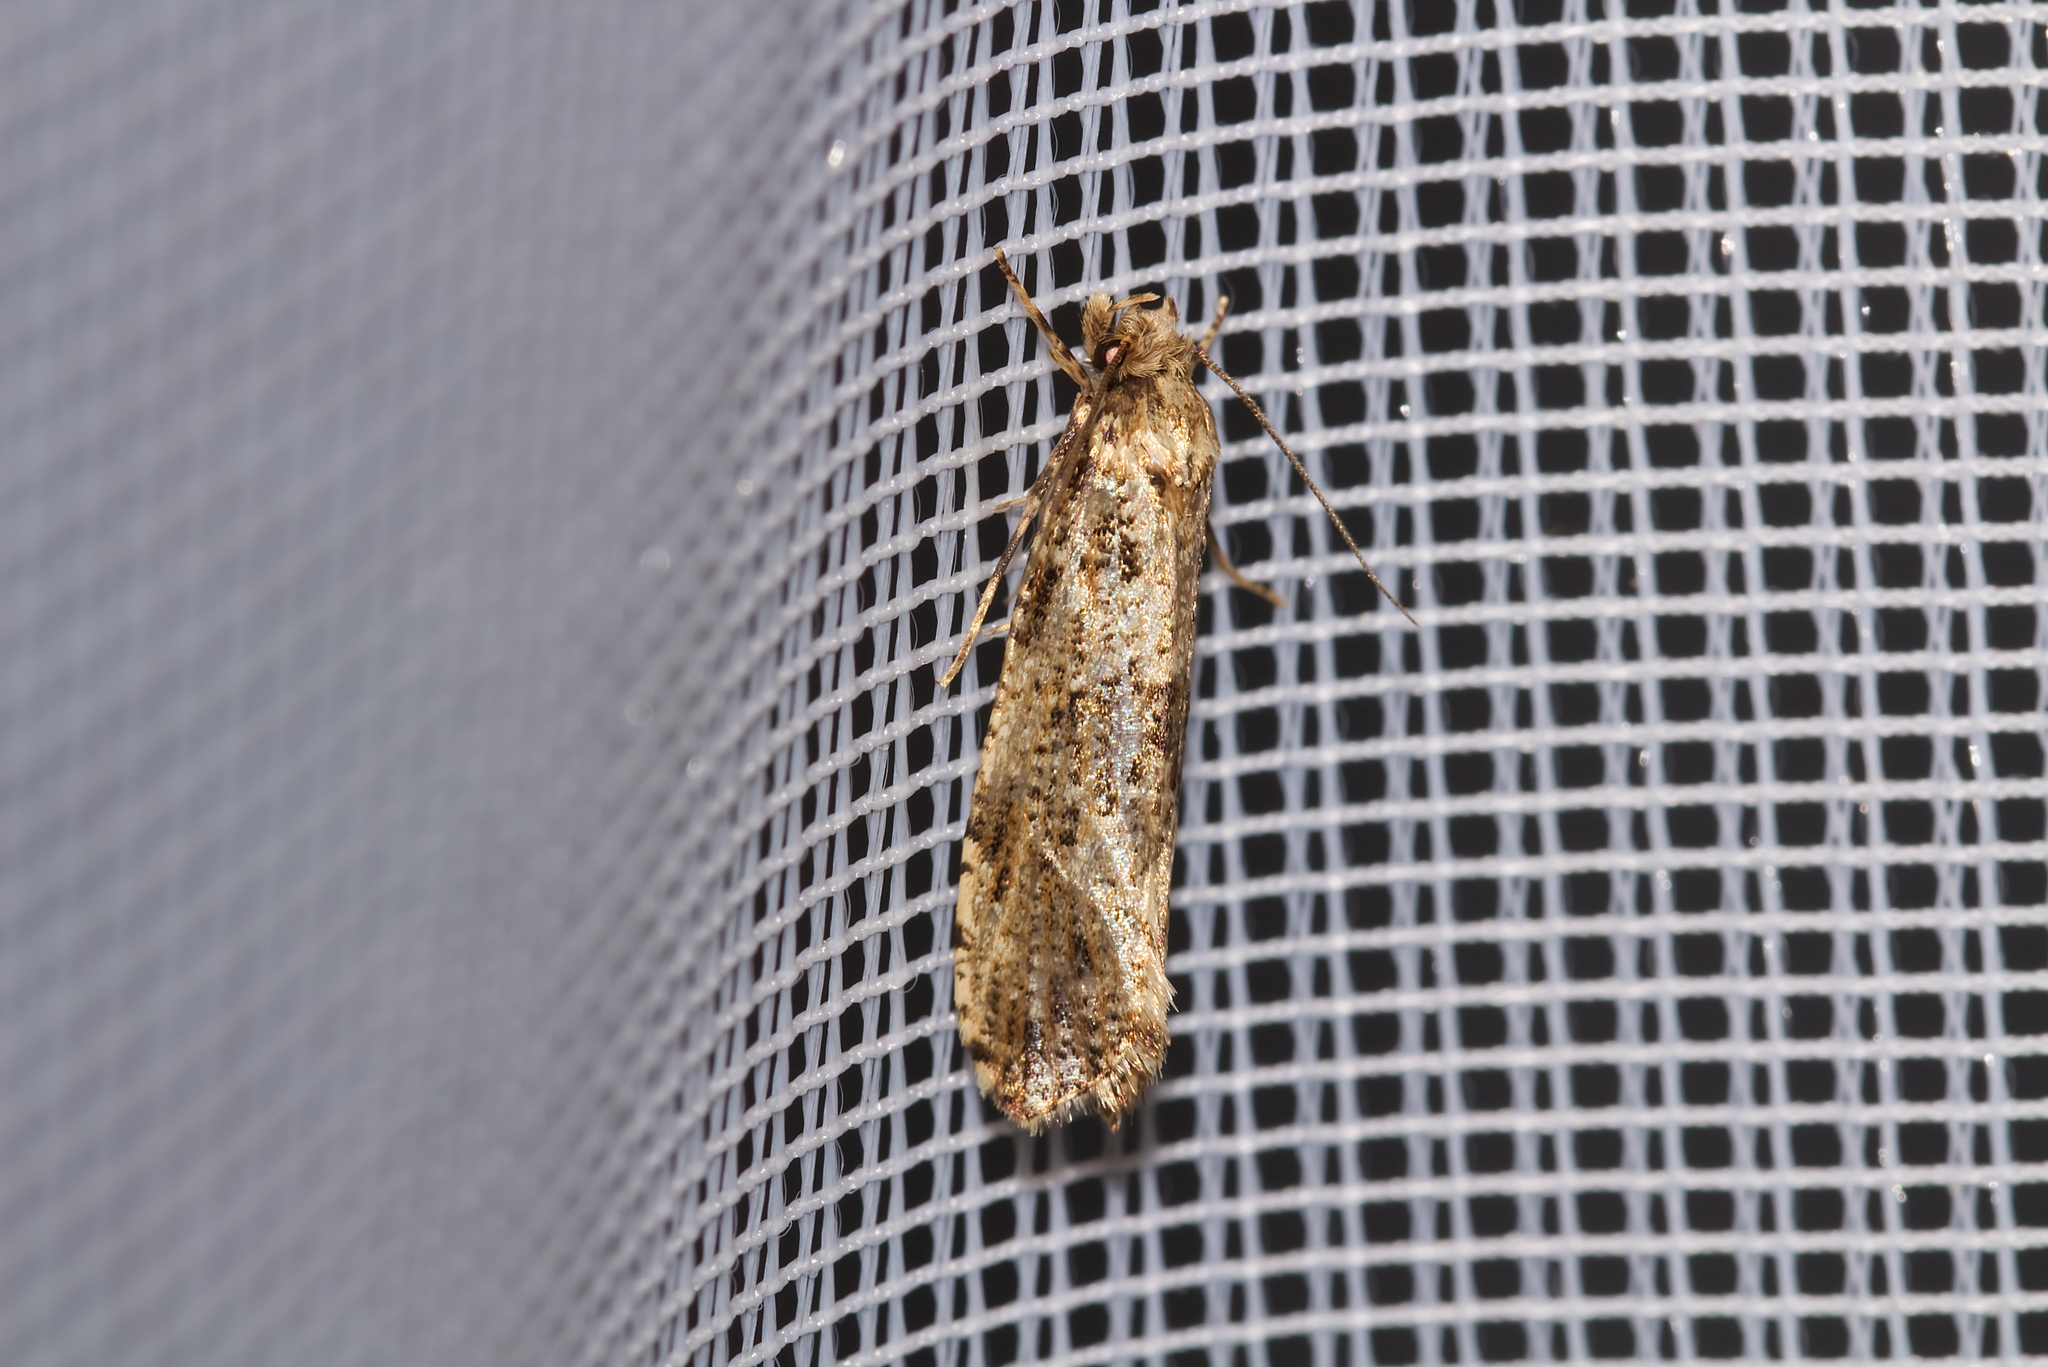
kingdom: Animalia
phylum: Arthropoda
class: Insecta
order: Lepidoptera
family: Tineidae
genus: Morophaga
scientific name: Morophaga choragella
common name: Large clothes
